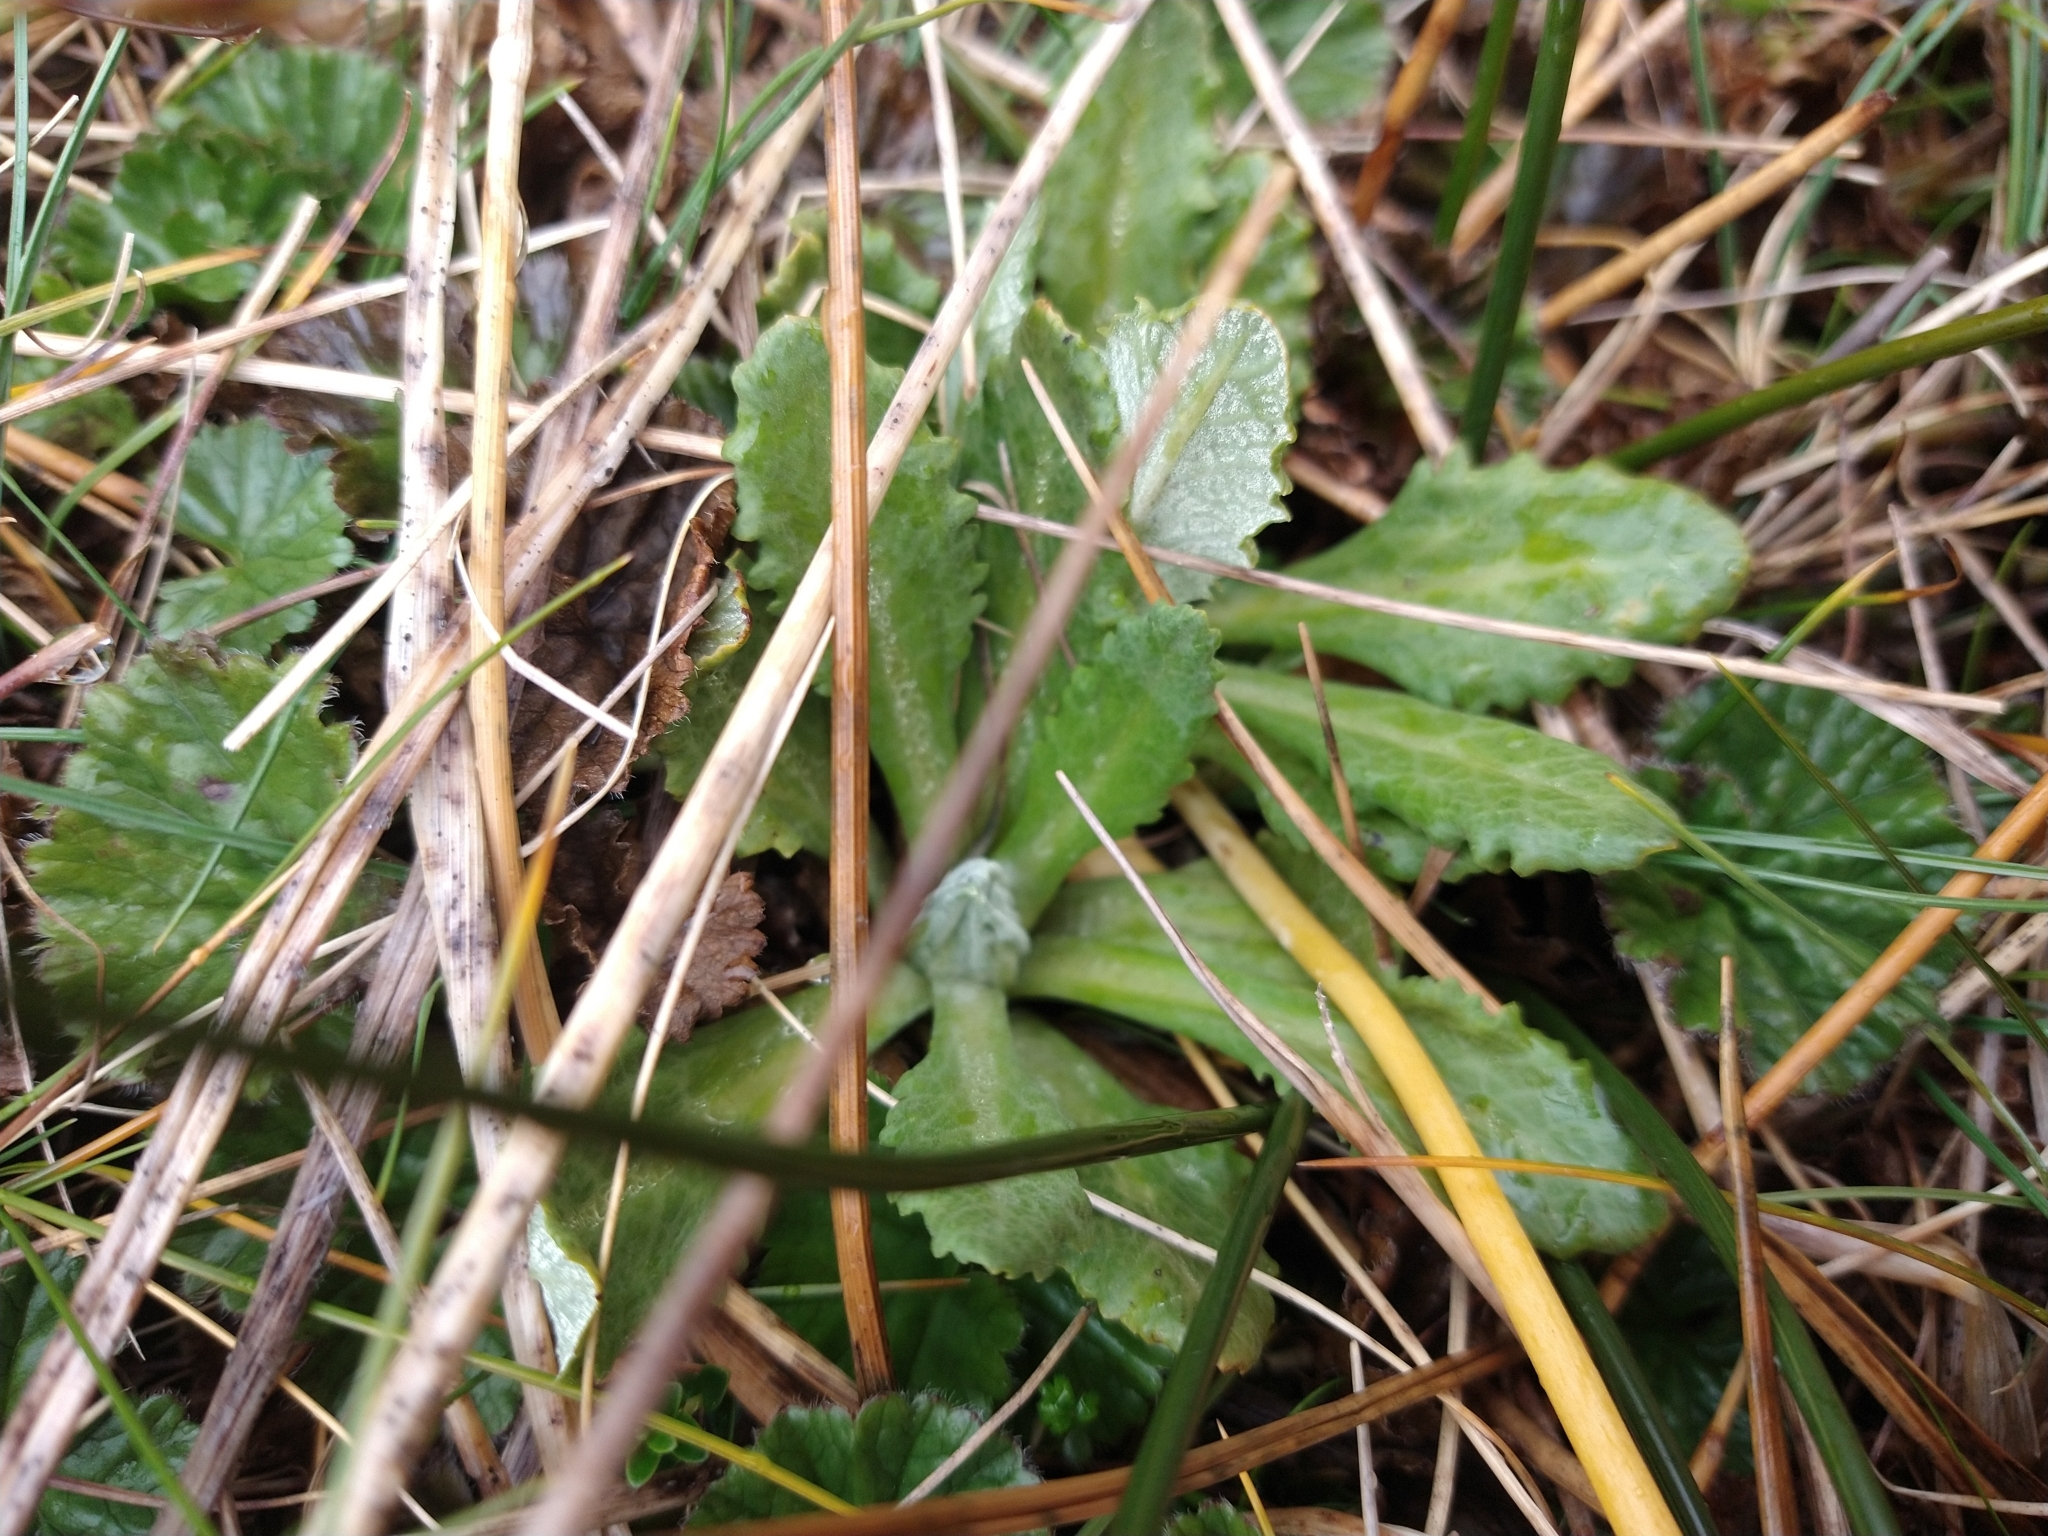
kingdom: Plantae
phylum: Tracheophyta
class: Magnoliopsida
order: Ericales
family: Primulaceae
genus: Primula
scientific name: Primula magellanica
